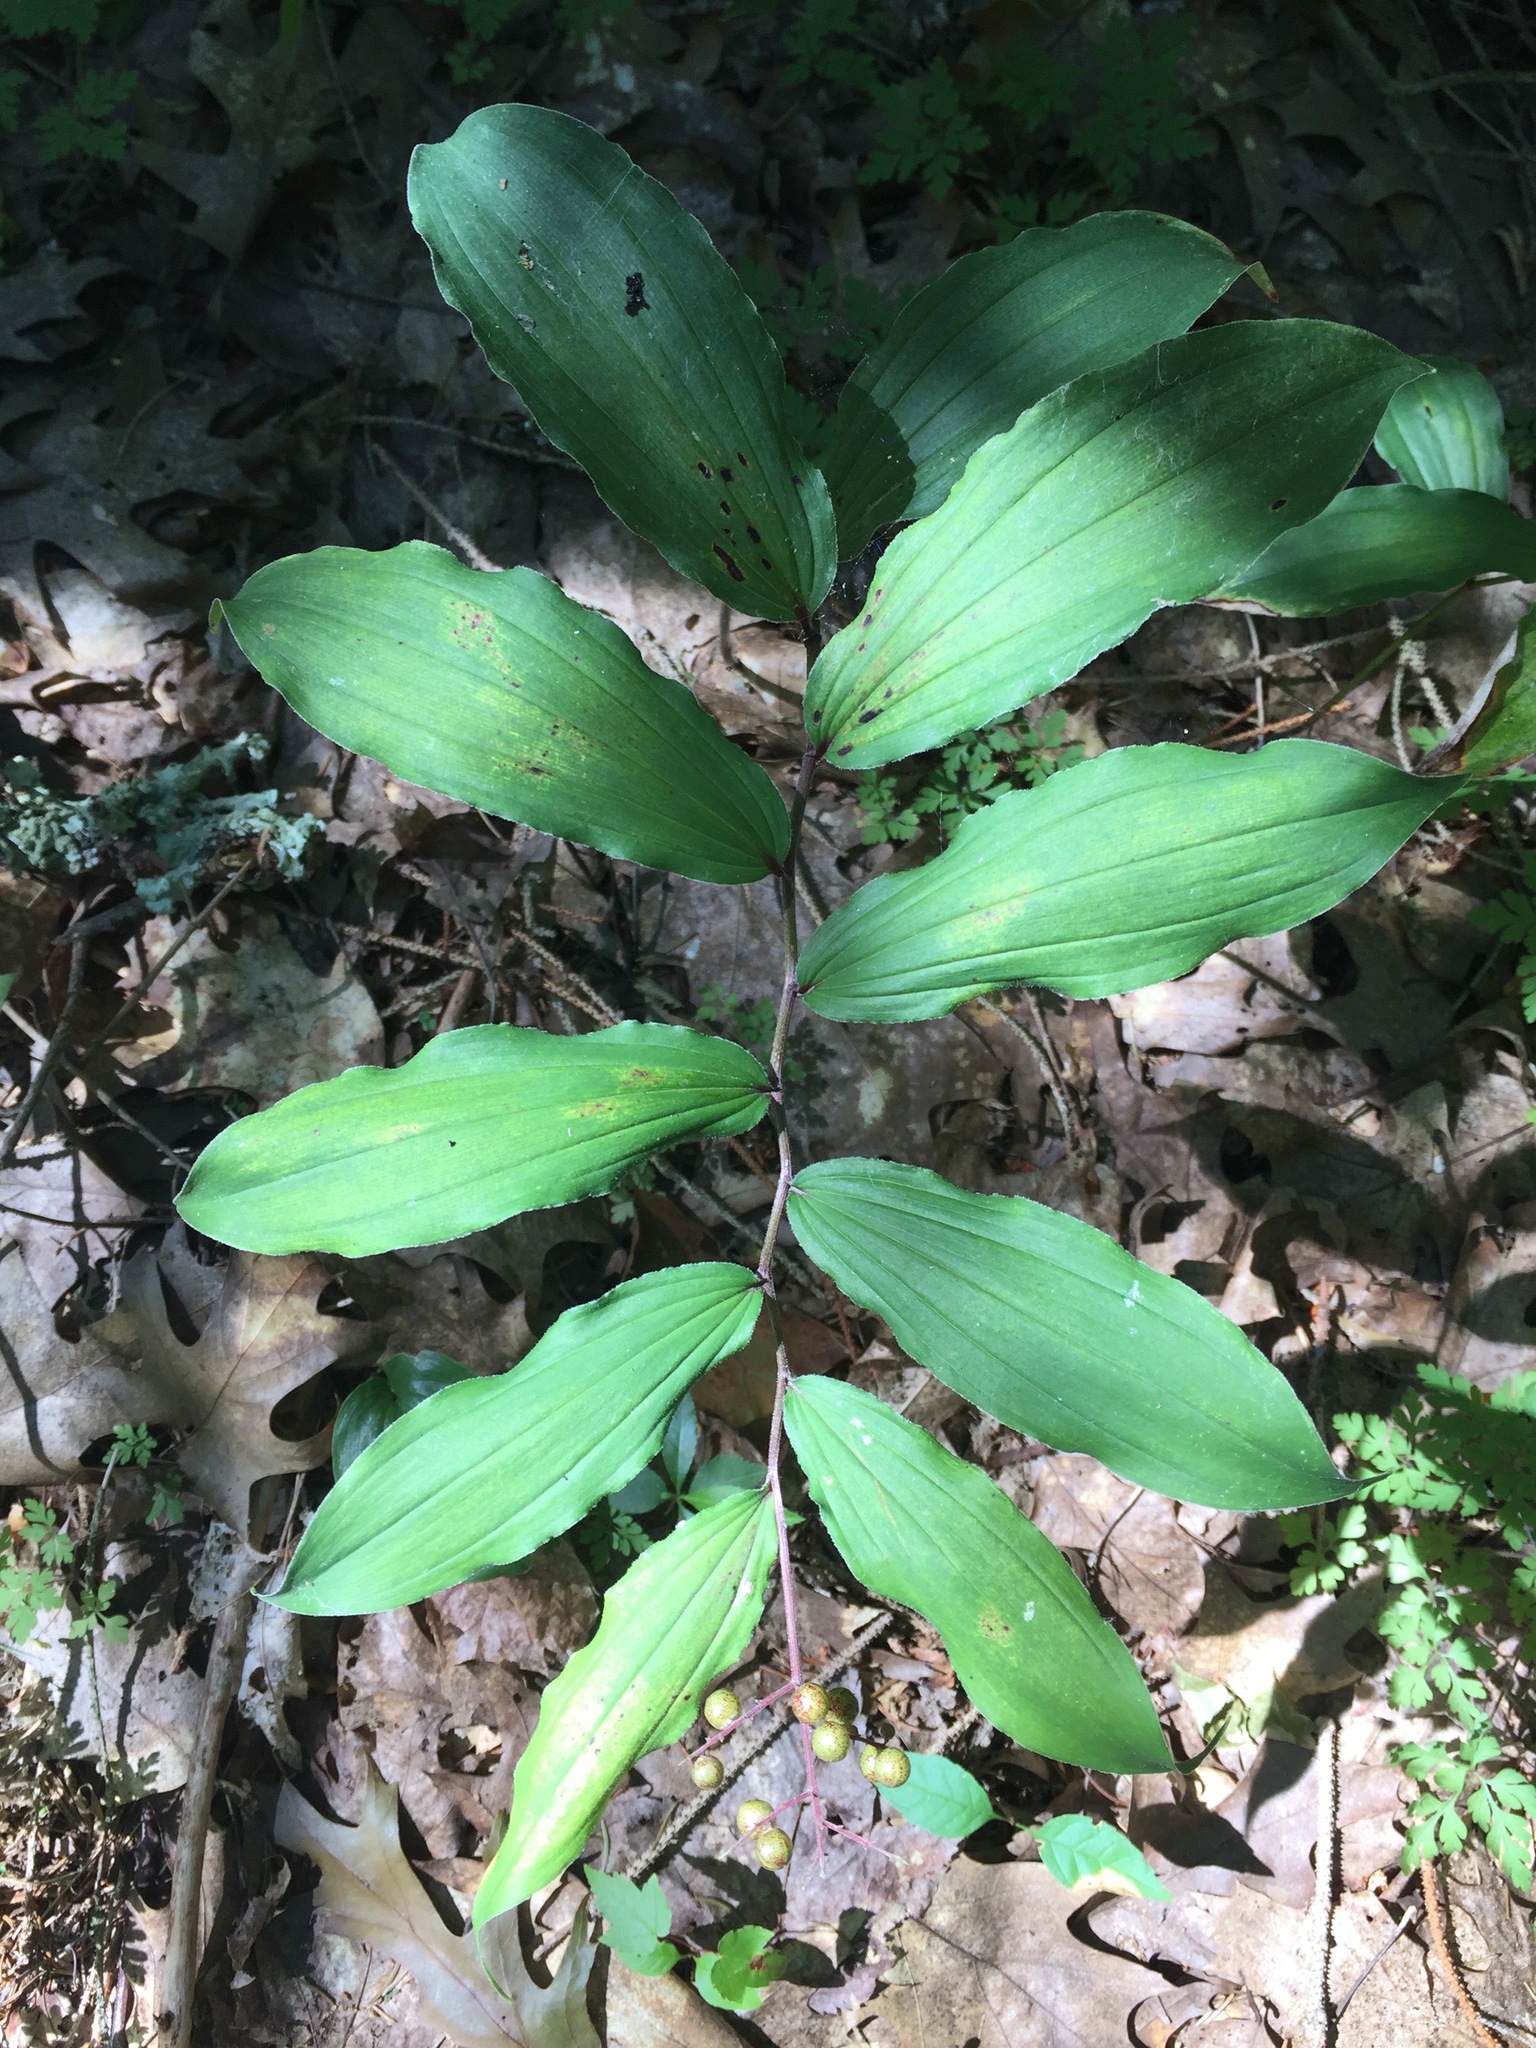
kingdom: Plantae
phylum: Tracheophyta
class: Liliopsida
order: Asparagales
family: Asparagaceae
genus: Maianthemum
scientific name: Maianthemum racemosum
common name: False spikenard
